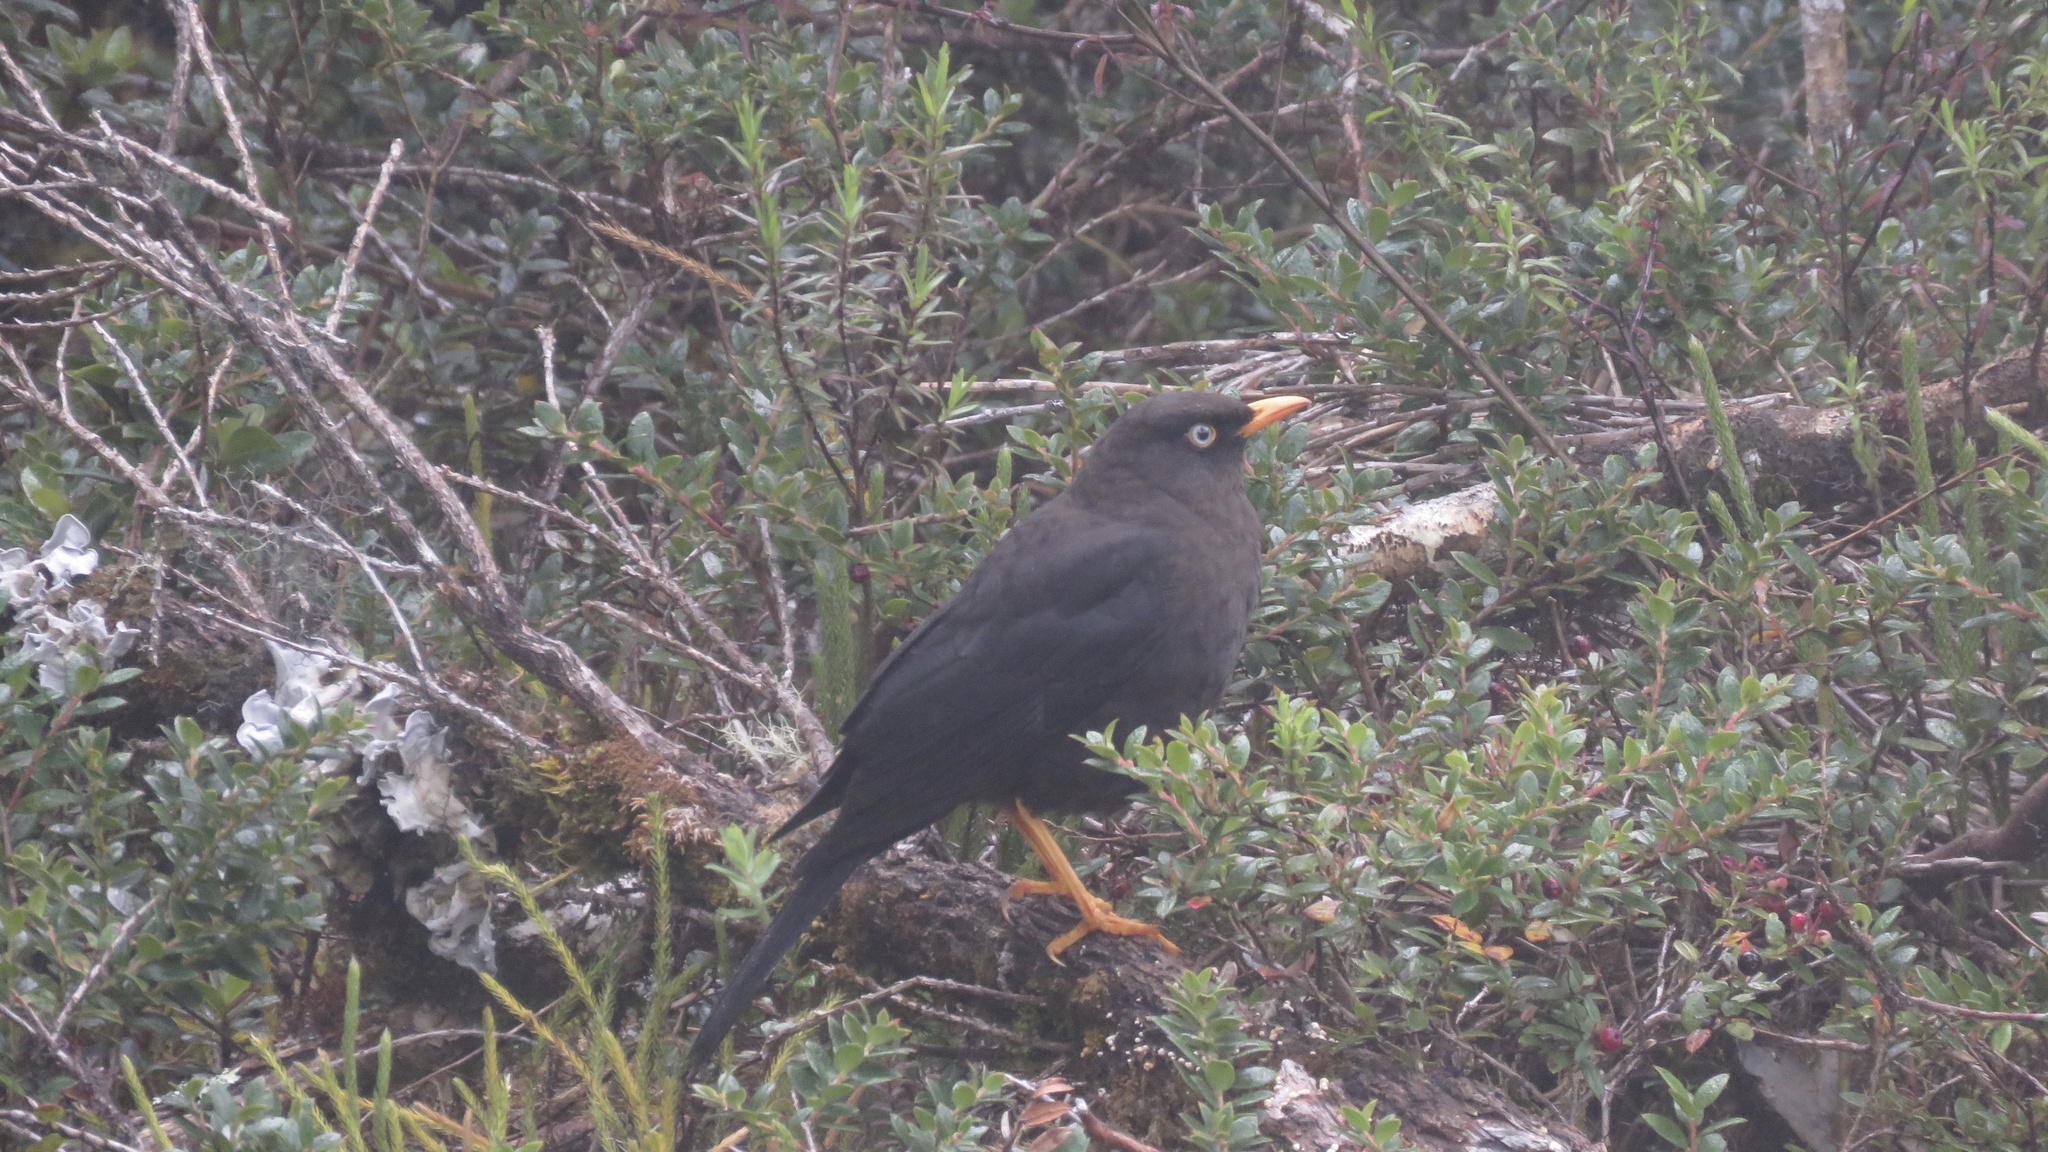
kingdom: Animalia
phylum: Chordata
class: Aves
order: Passeriformes
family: Turdidae
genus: Turdus
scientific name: Turdus nigrescens
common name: Sooty thrush
